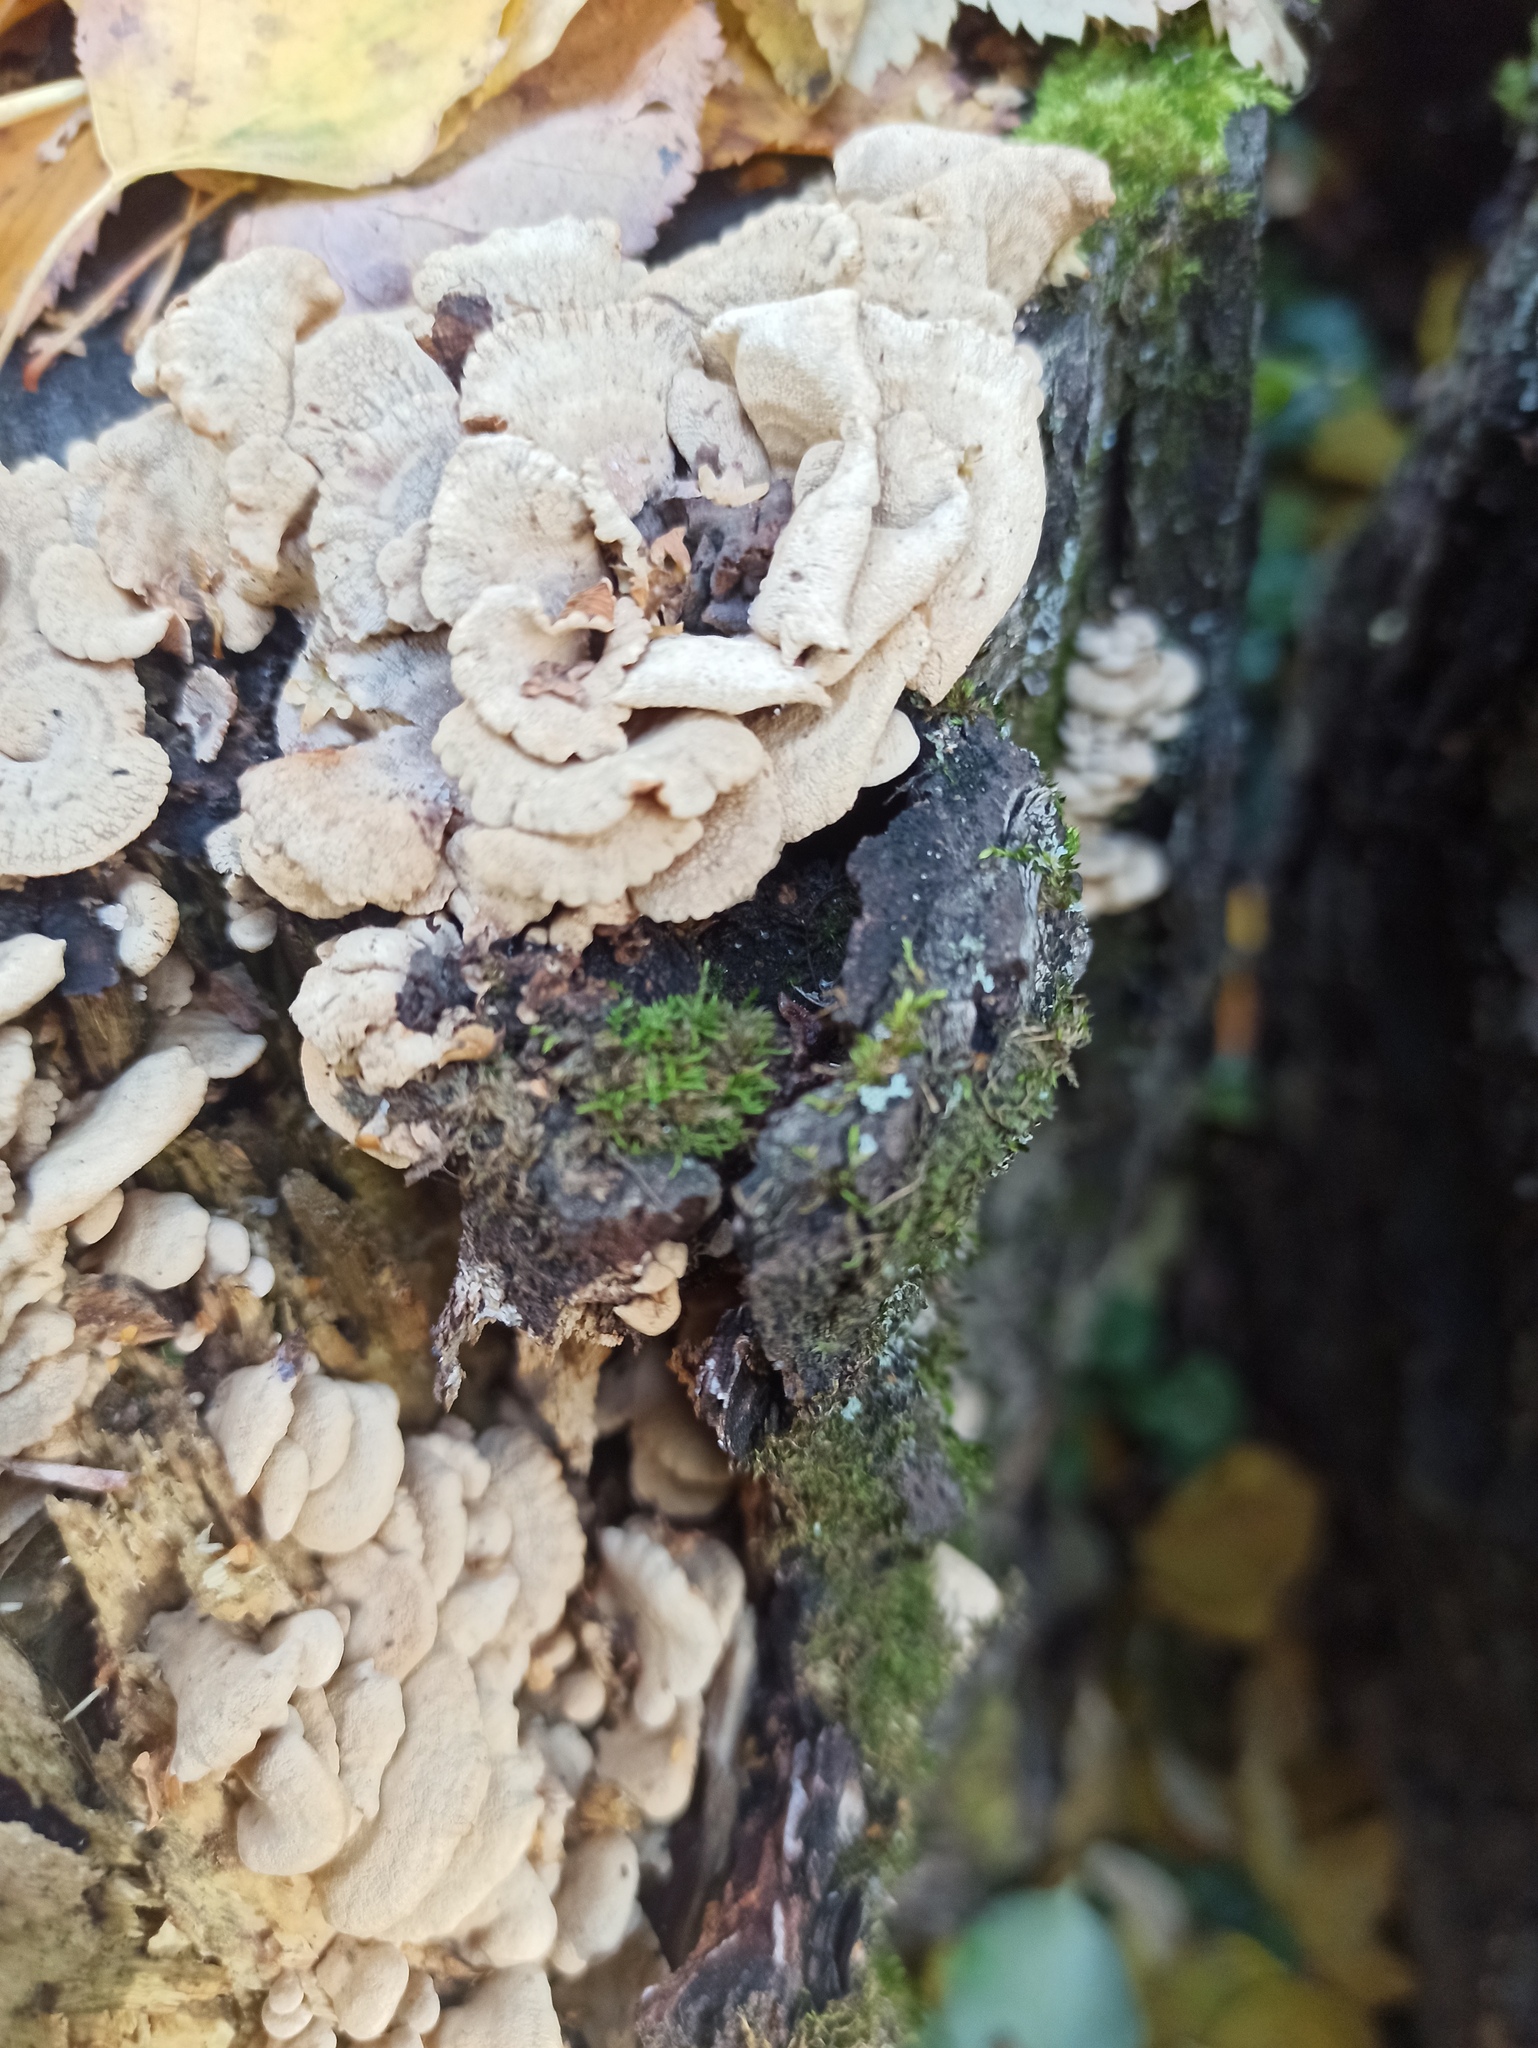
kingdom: Fungi
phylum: Basidiomycota
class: Agaricomycetes
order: Agaricales
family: Mycenaceae
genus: Panellus
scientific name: Panellus stipticus
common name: Bitter oysterling
